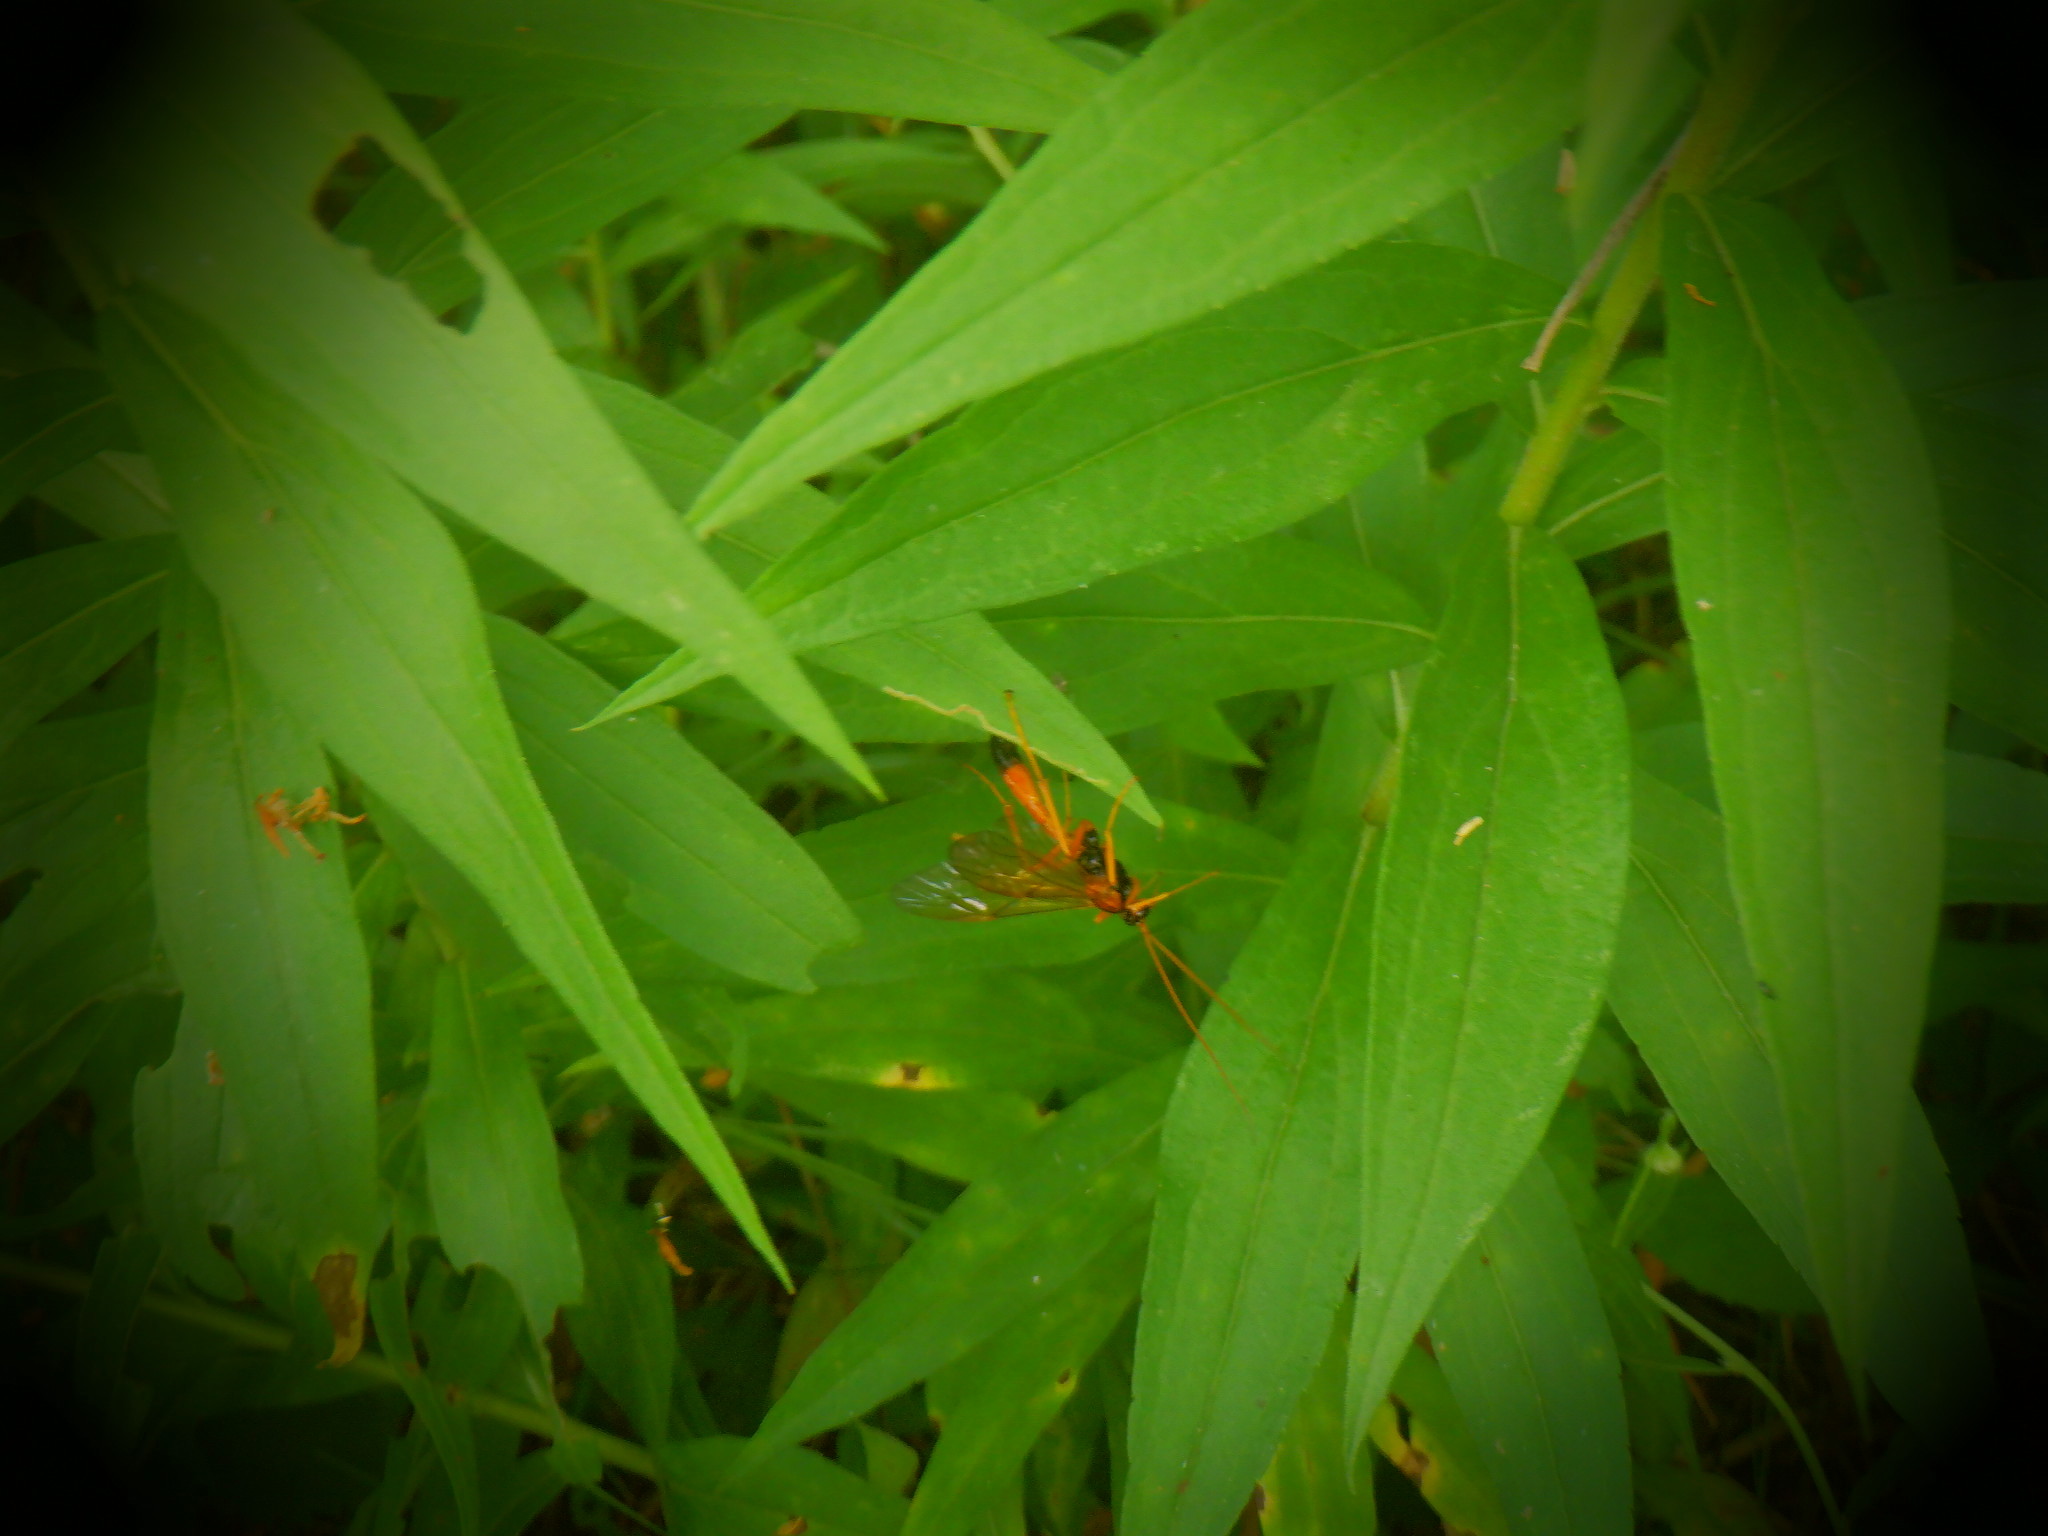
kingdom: Animalia
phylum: Arthropoda
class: Insecta
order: Hymenoptera
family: Ichneumonidae
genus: Opheltes
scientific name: Opheltes glaucopterus
